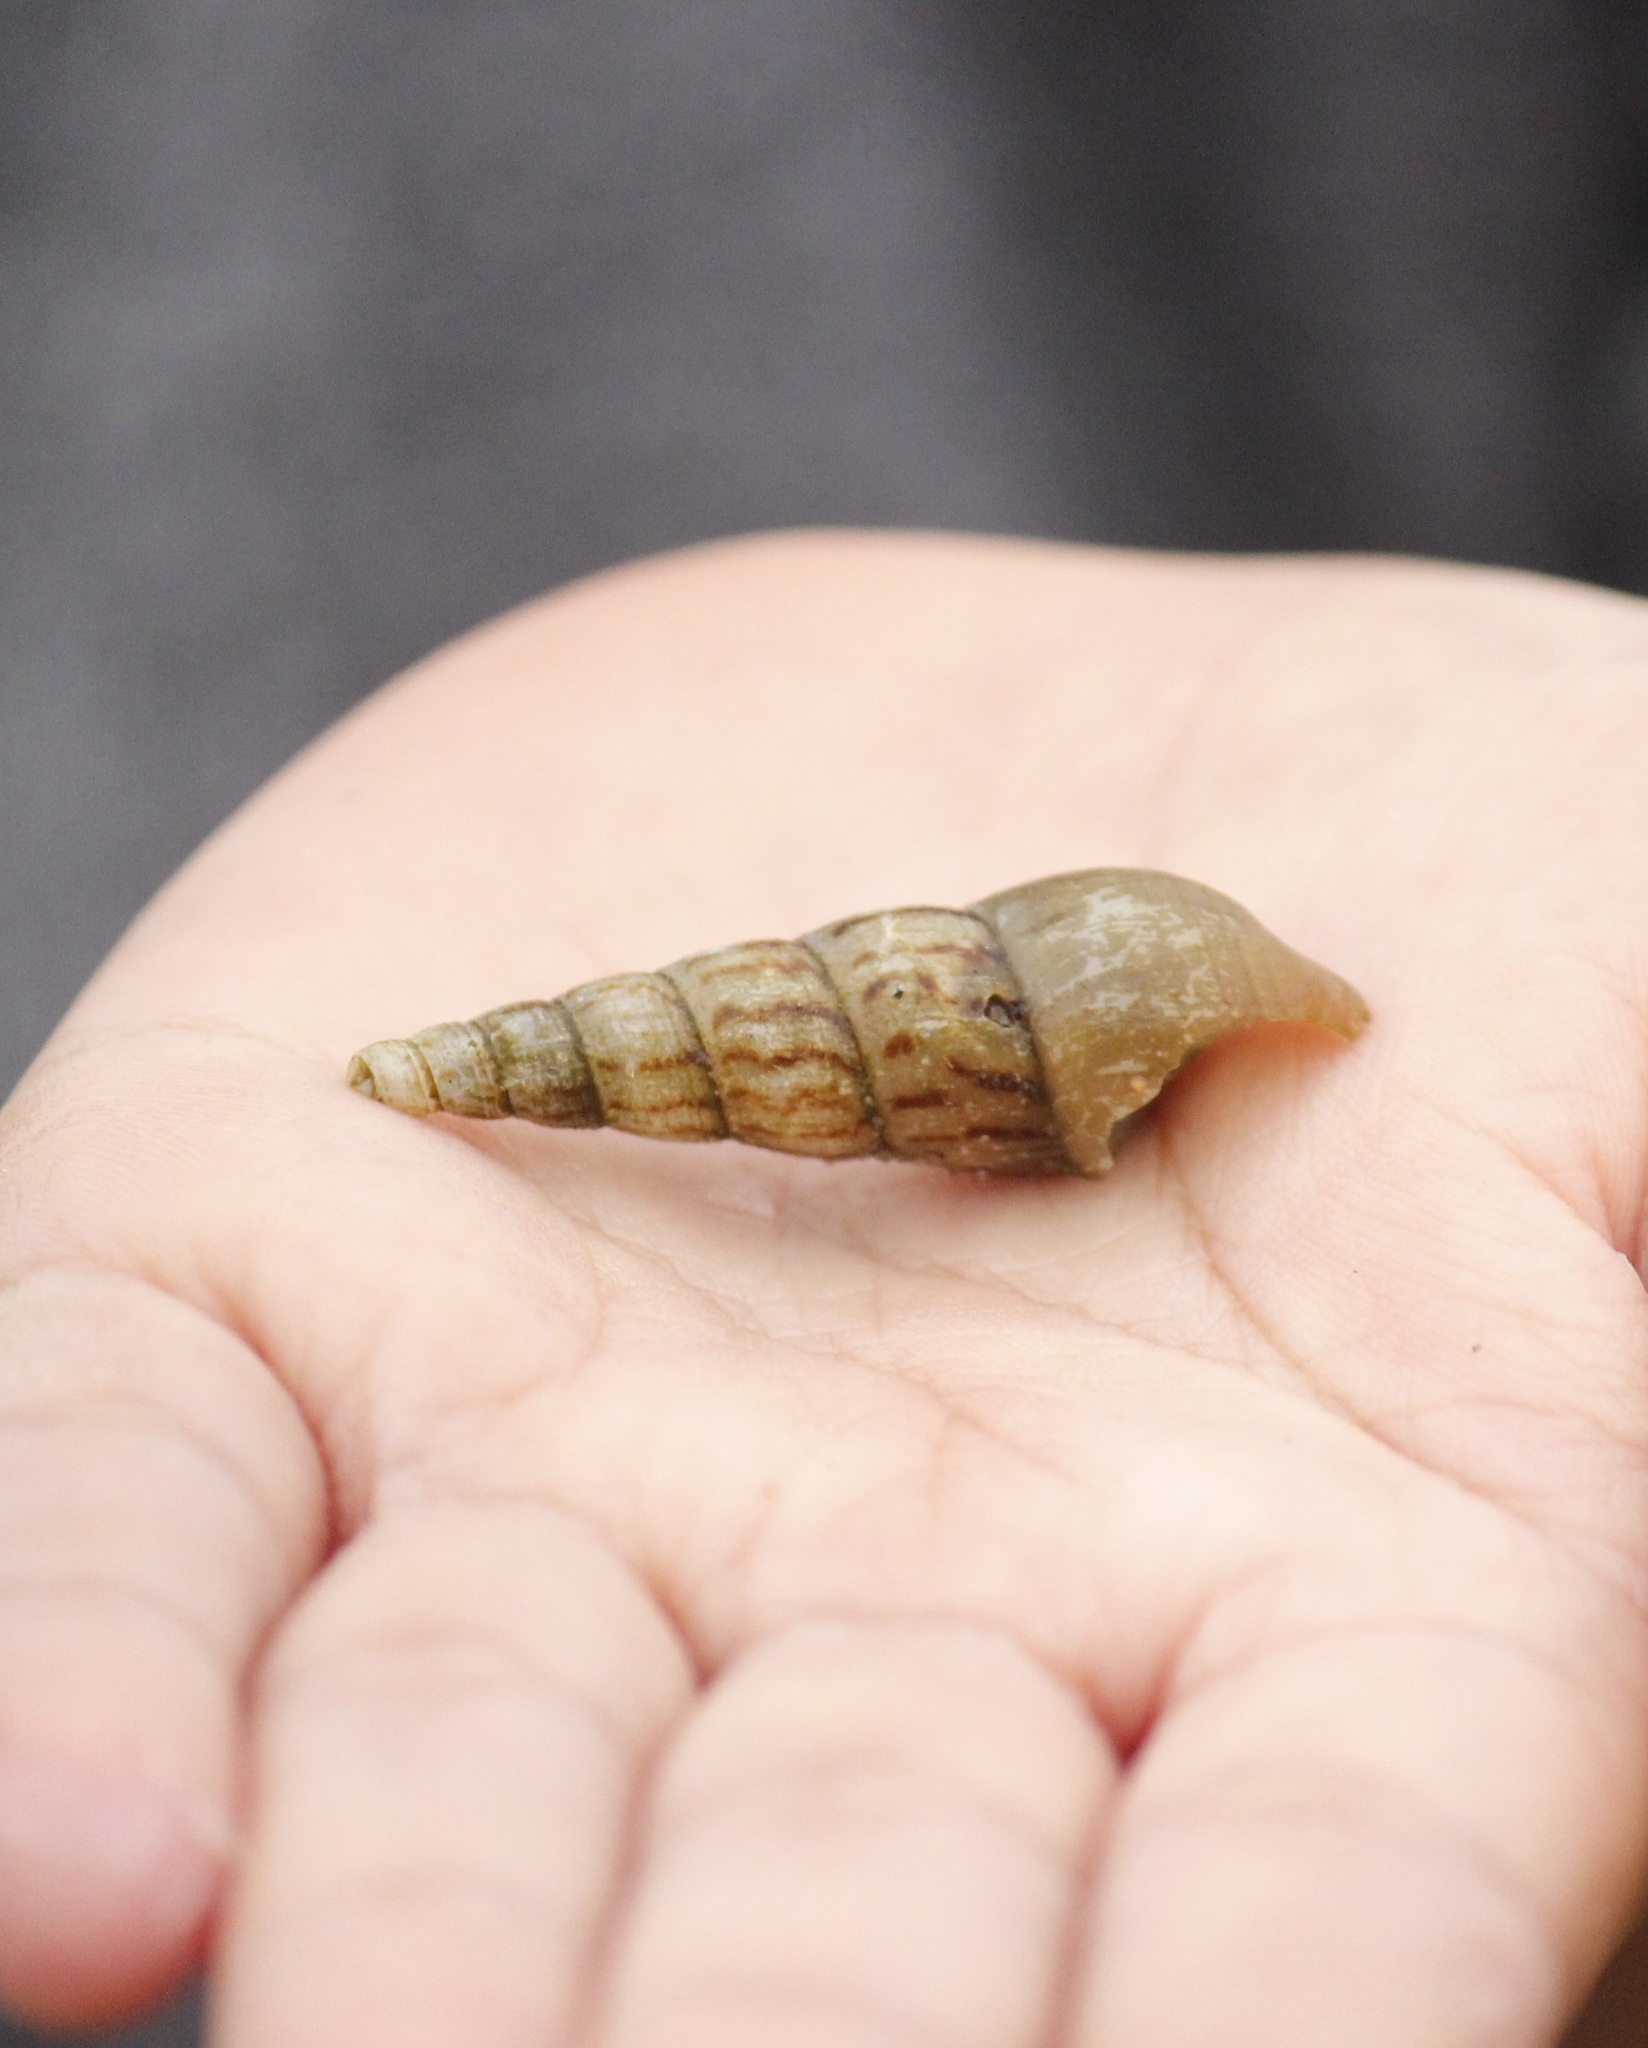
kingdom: Animalia
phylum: Mollusca
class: Gastropoda
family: Thiaridae
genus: Melanoides
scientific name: Melanoides tuberculata
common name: Red-rim melania
